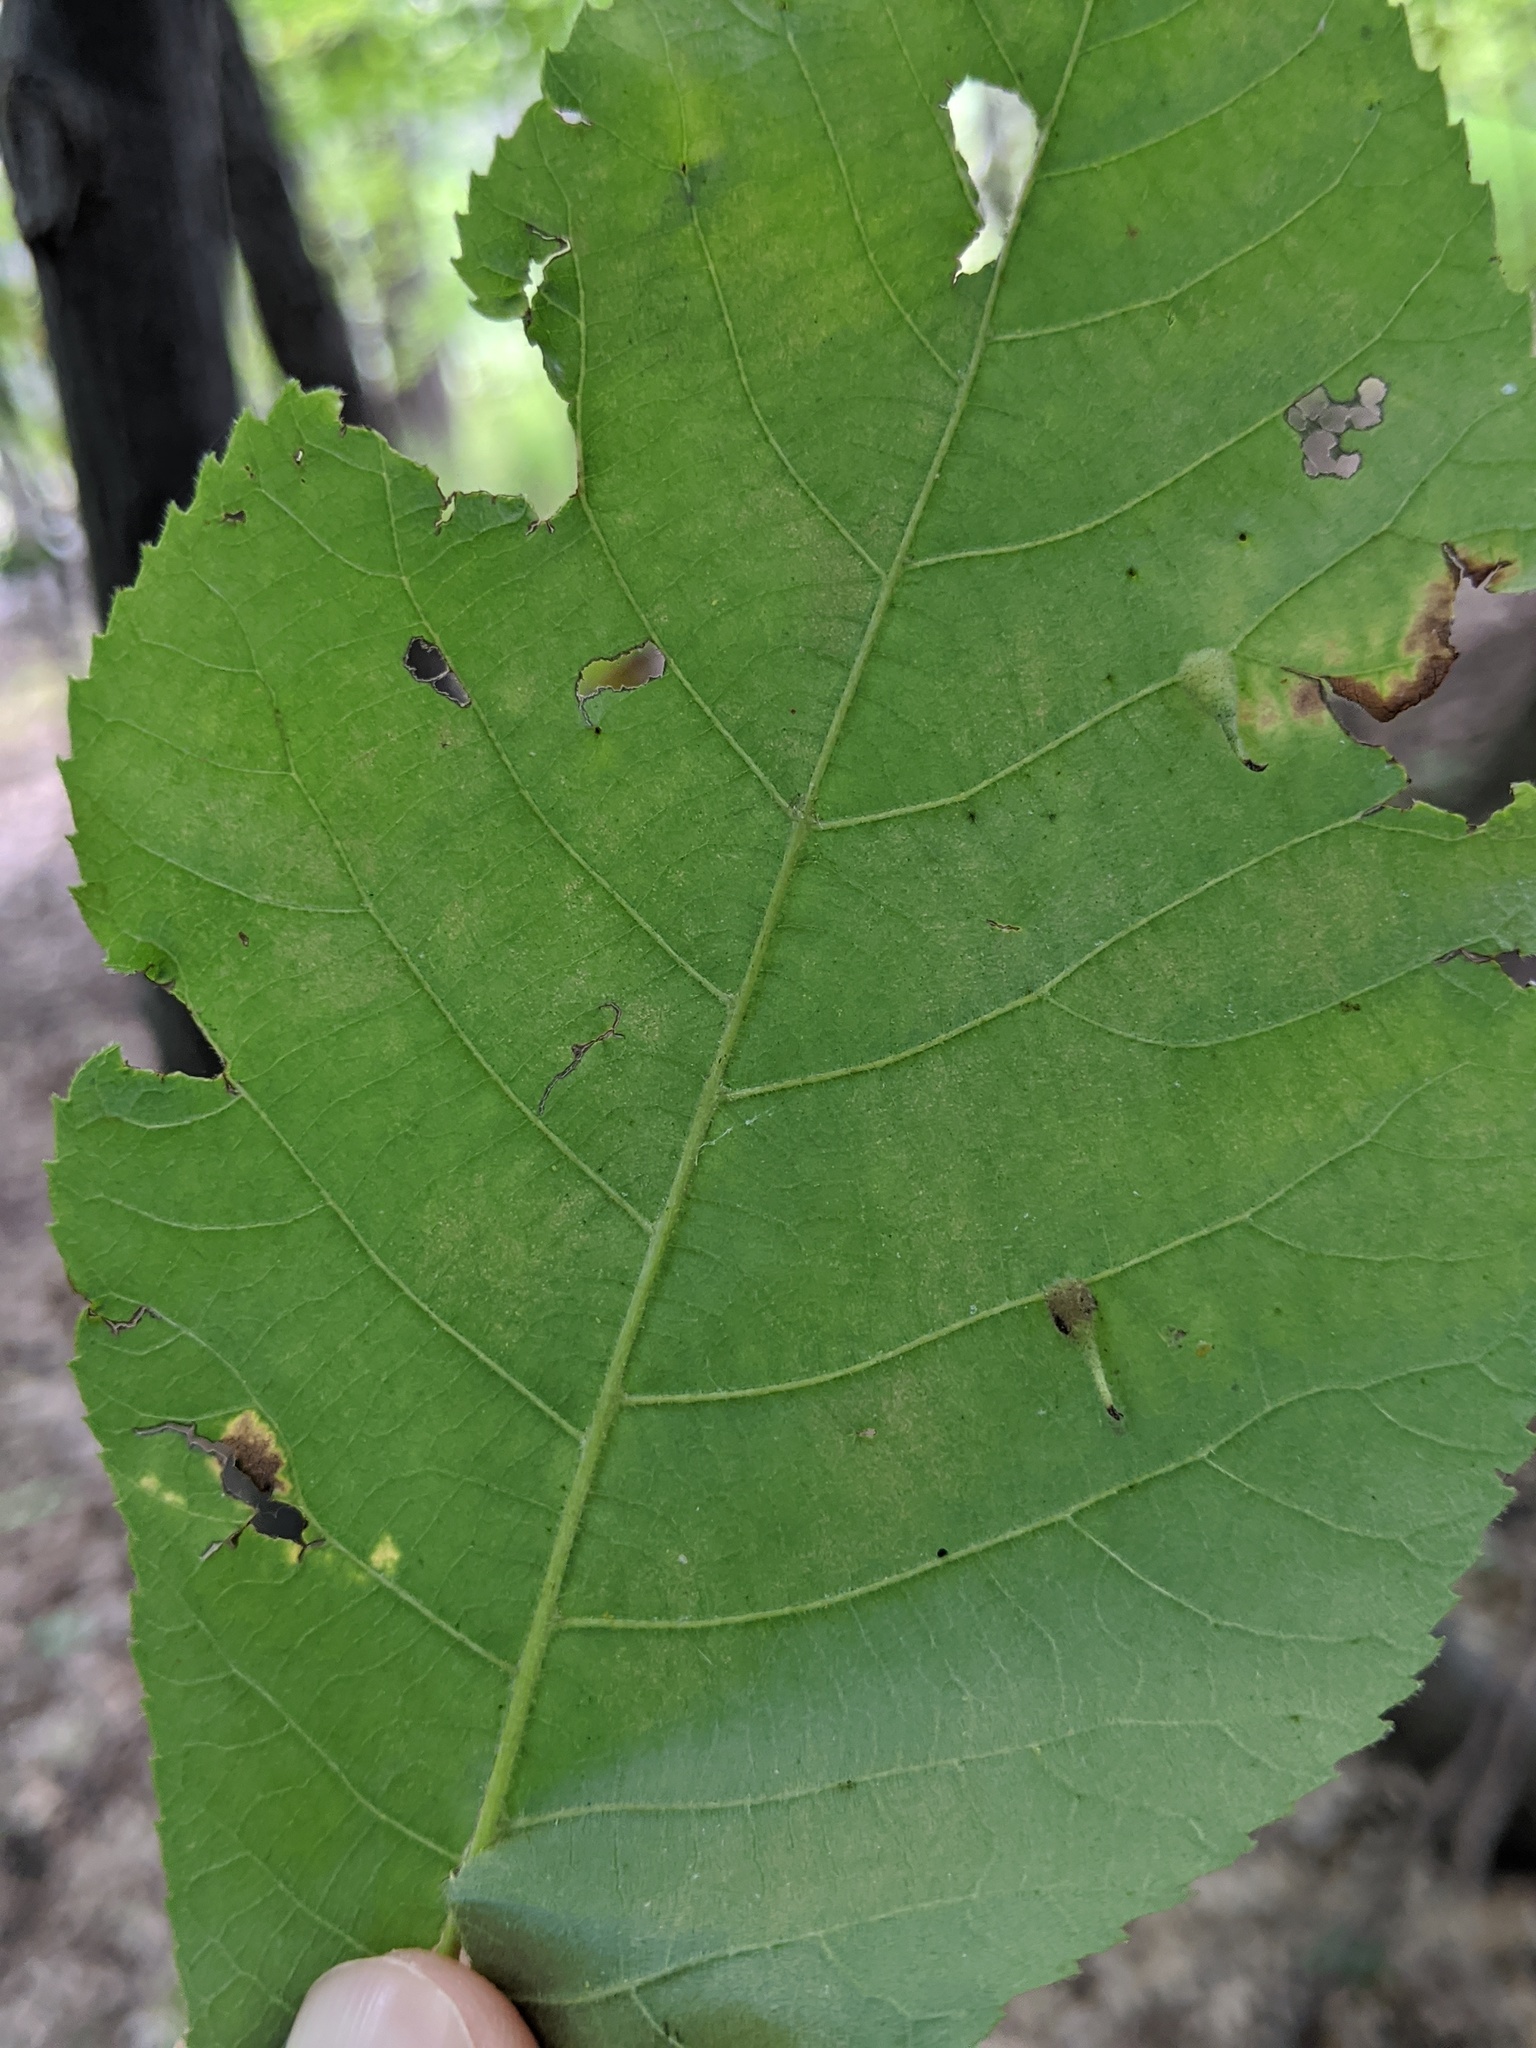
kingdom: Animalia
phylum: Arthropoda
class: Insecta
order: Diptera
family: Cecidomyiidae
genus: Caryomyia
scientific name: Caryomyia inclinata
